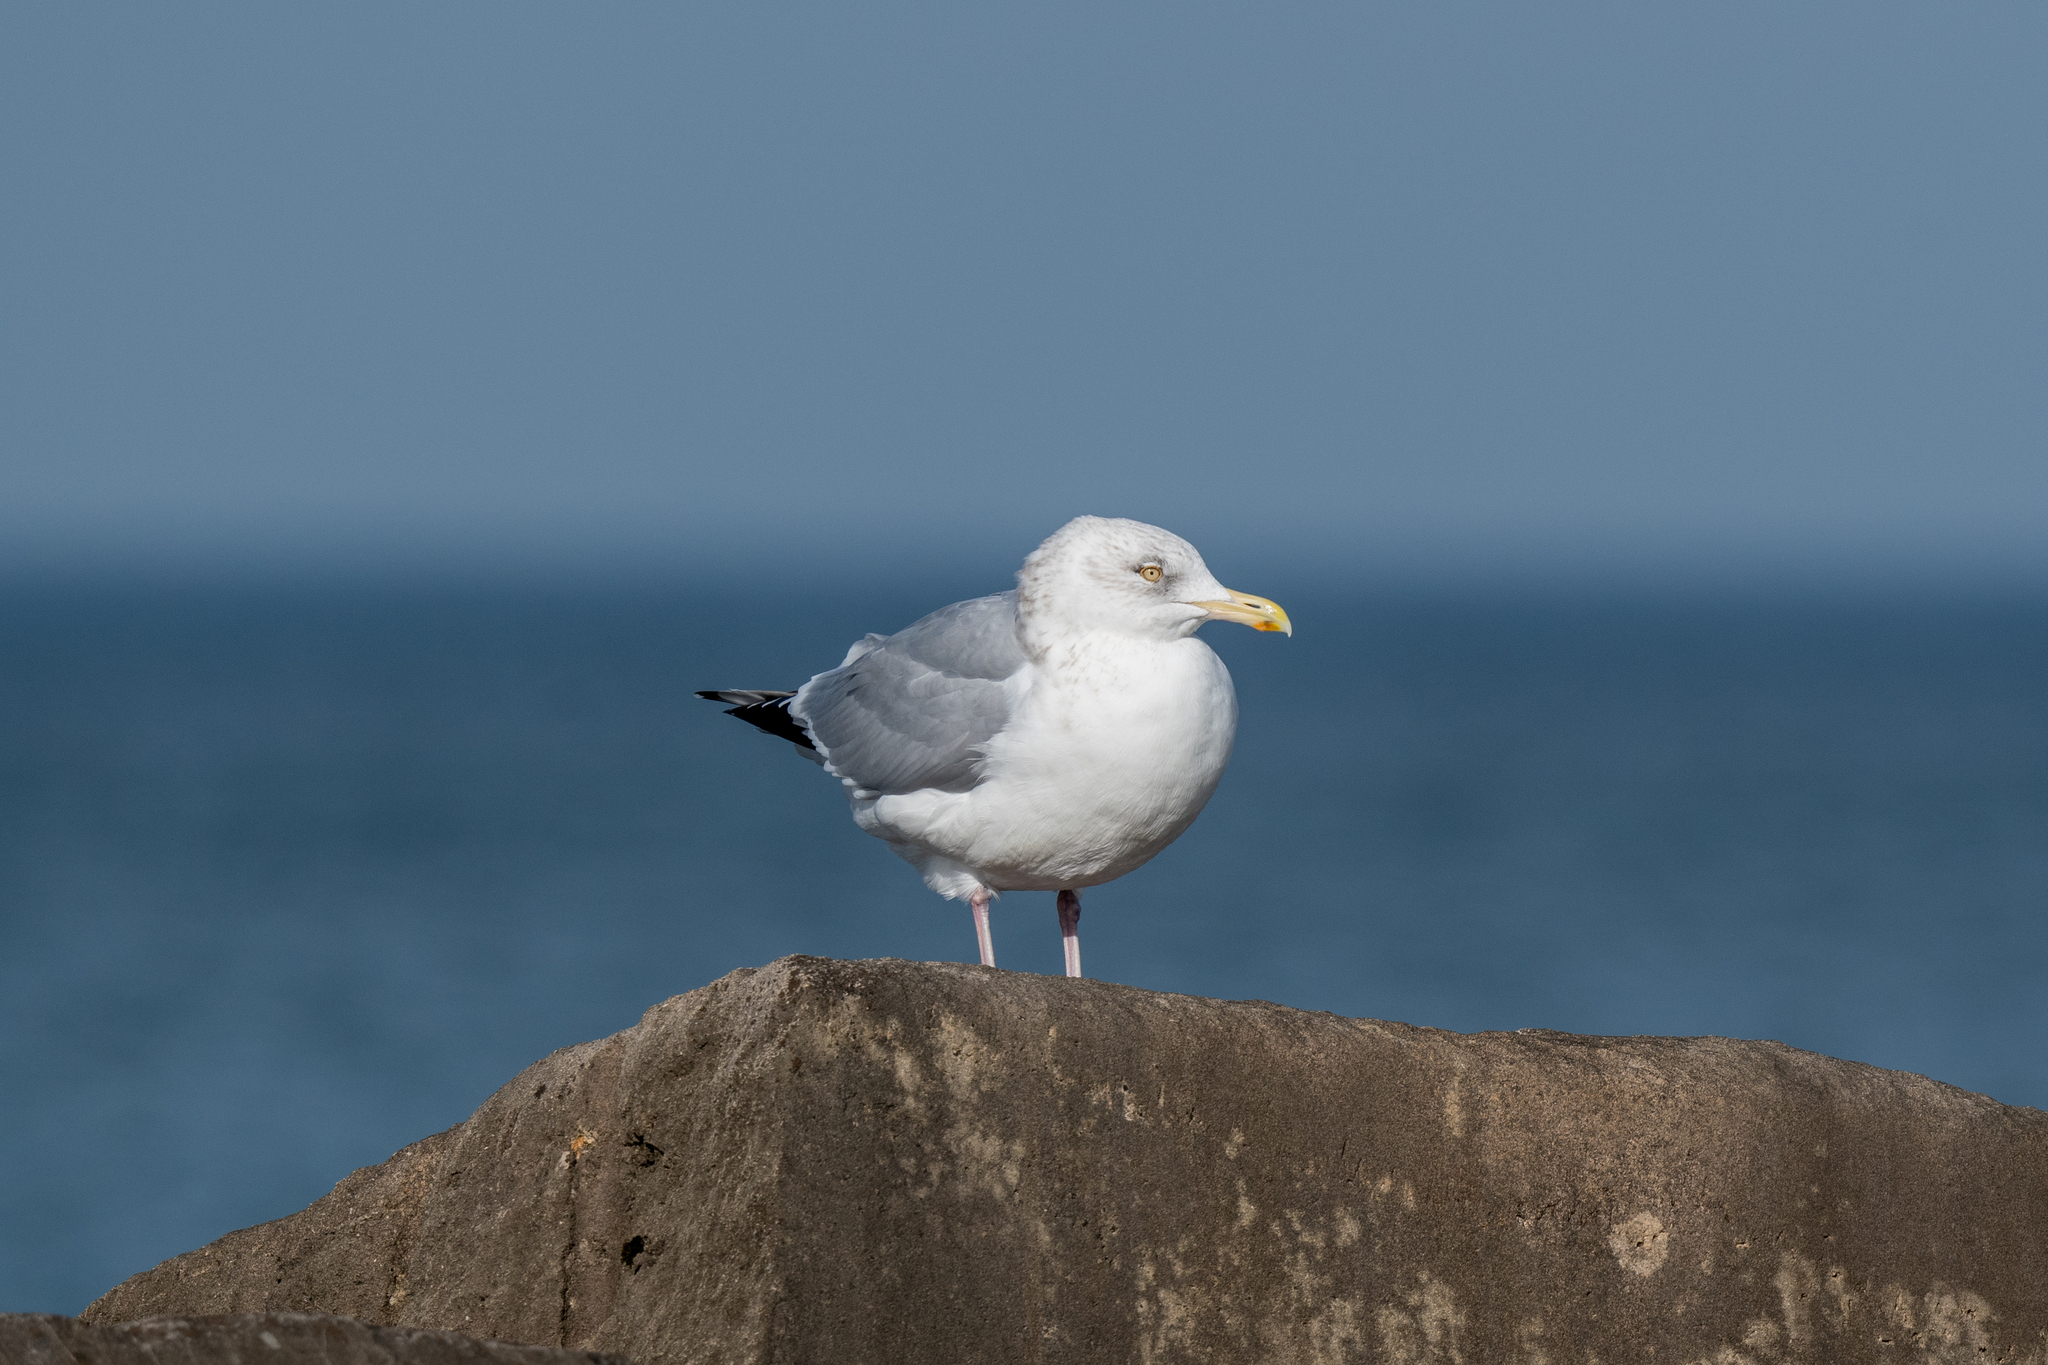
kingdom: Animalia
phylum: Chordata
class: Aves
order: Charadriiformes
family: Laridae
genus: Larus
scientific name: Larus argentatus
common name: Herring gull
